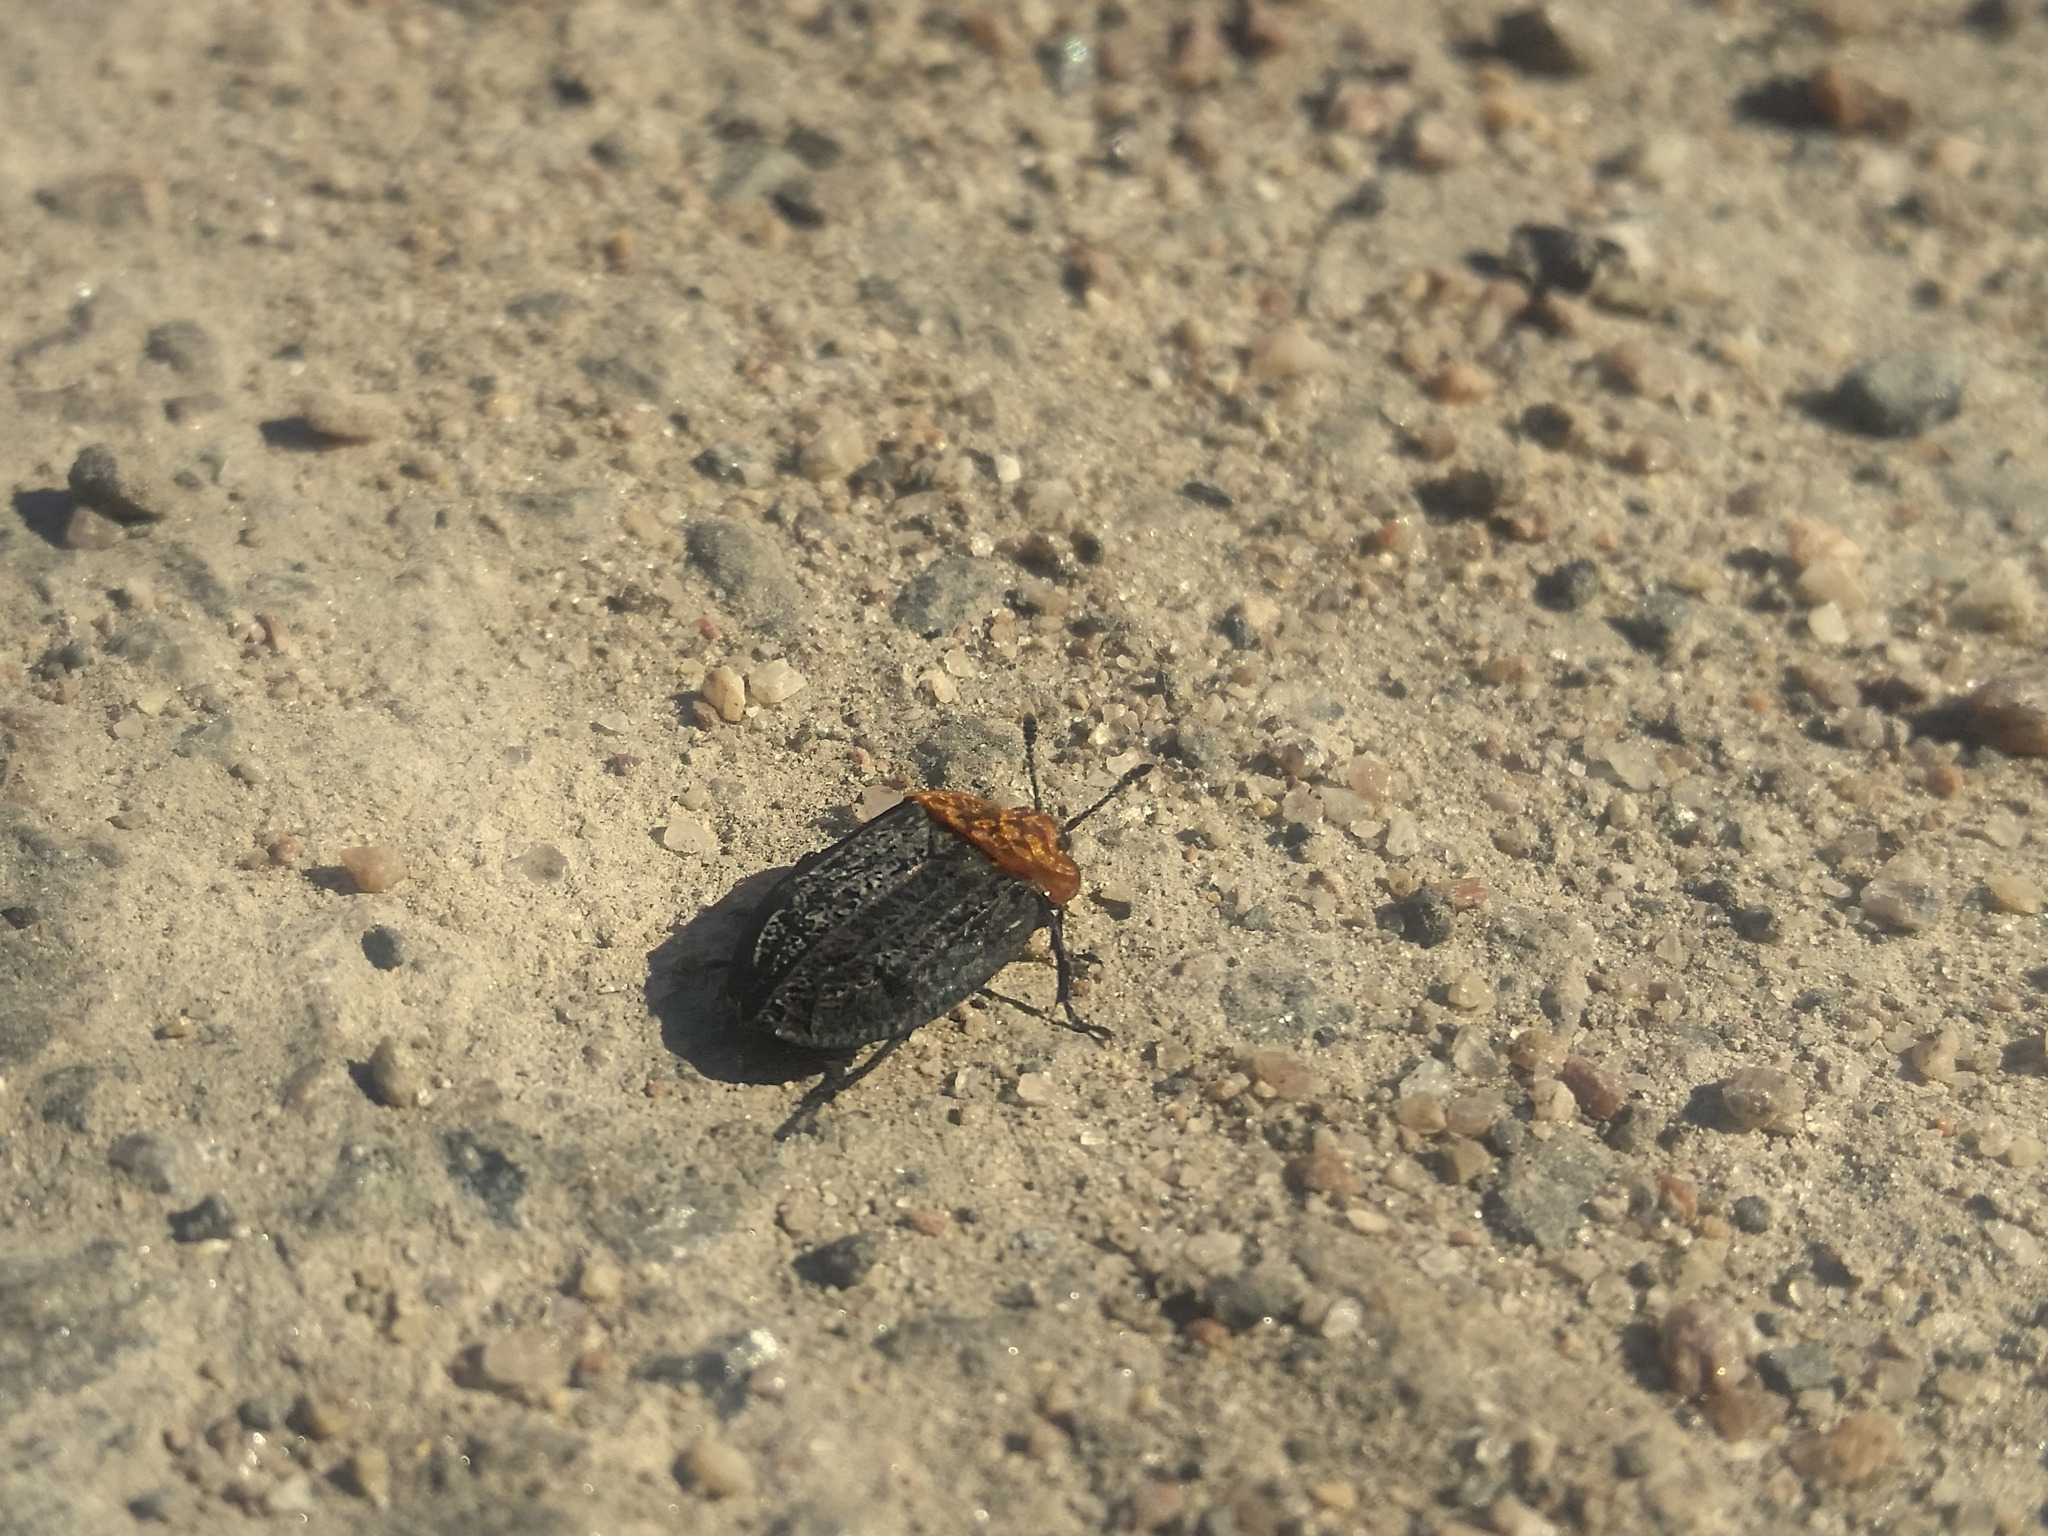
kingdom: Animalia
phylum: Arthropoda
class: Insecta
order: Coleoptera
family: Staphylinidae
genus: Oiceoptoma
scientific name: Oiceoptoma thoracicum
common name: Red-breasted carrion beetle
